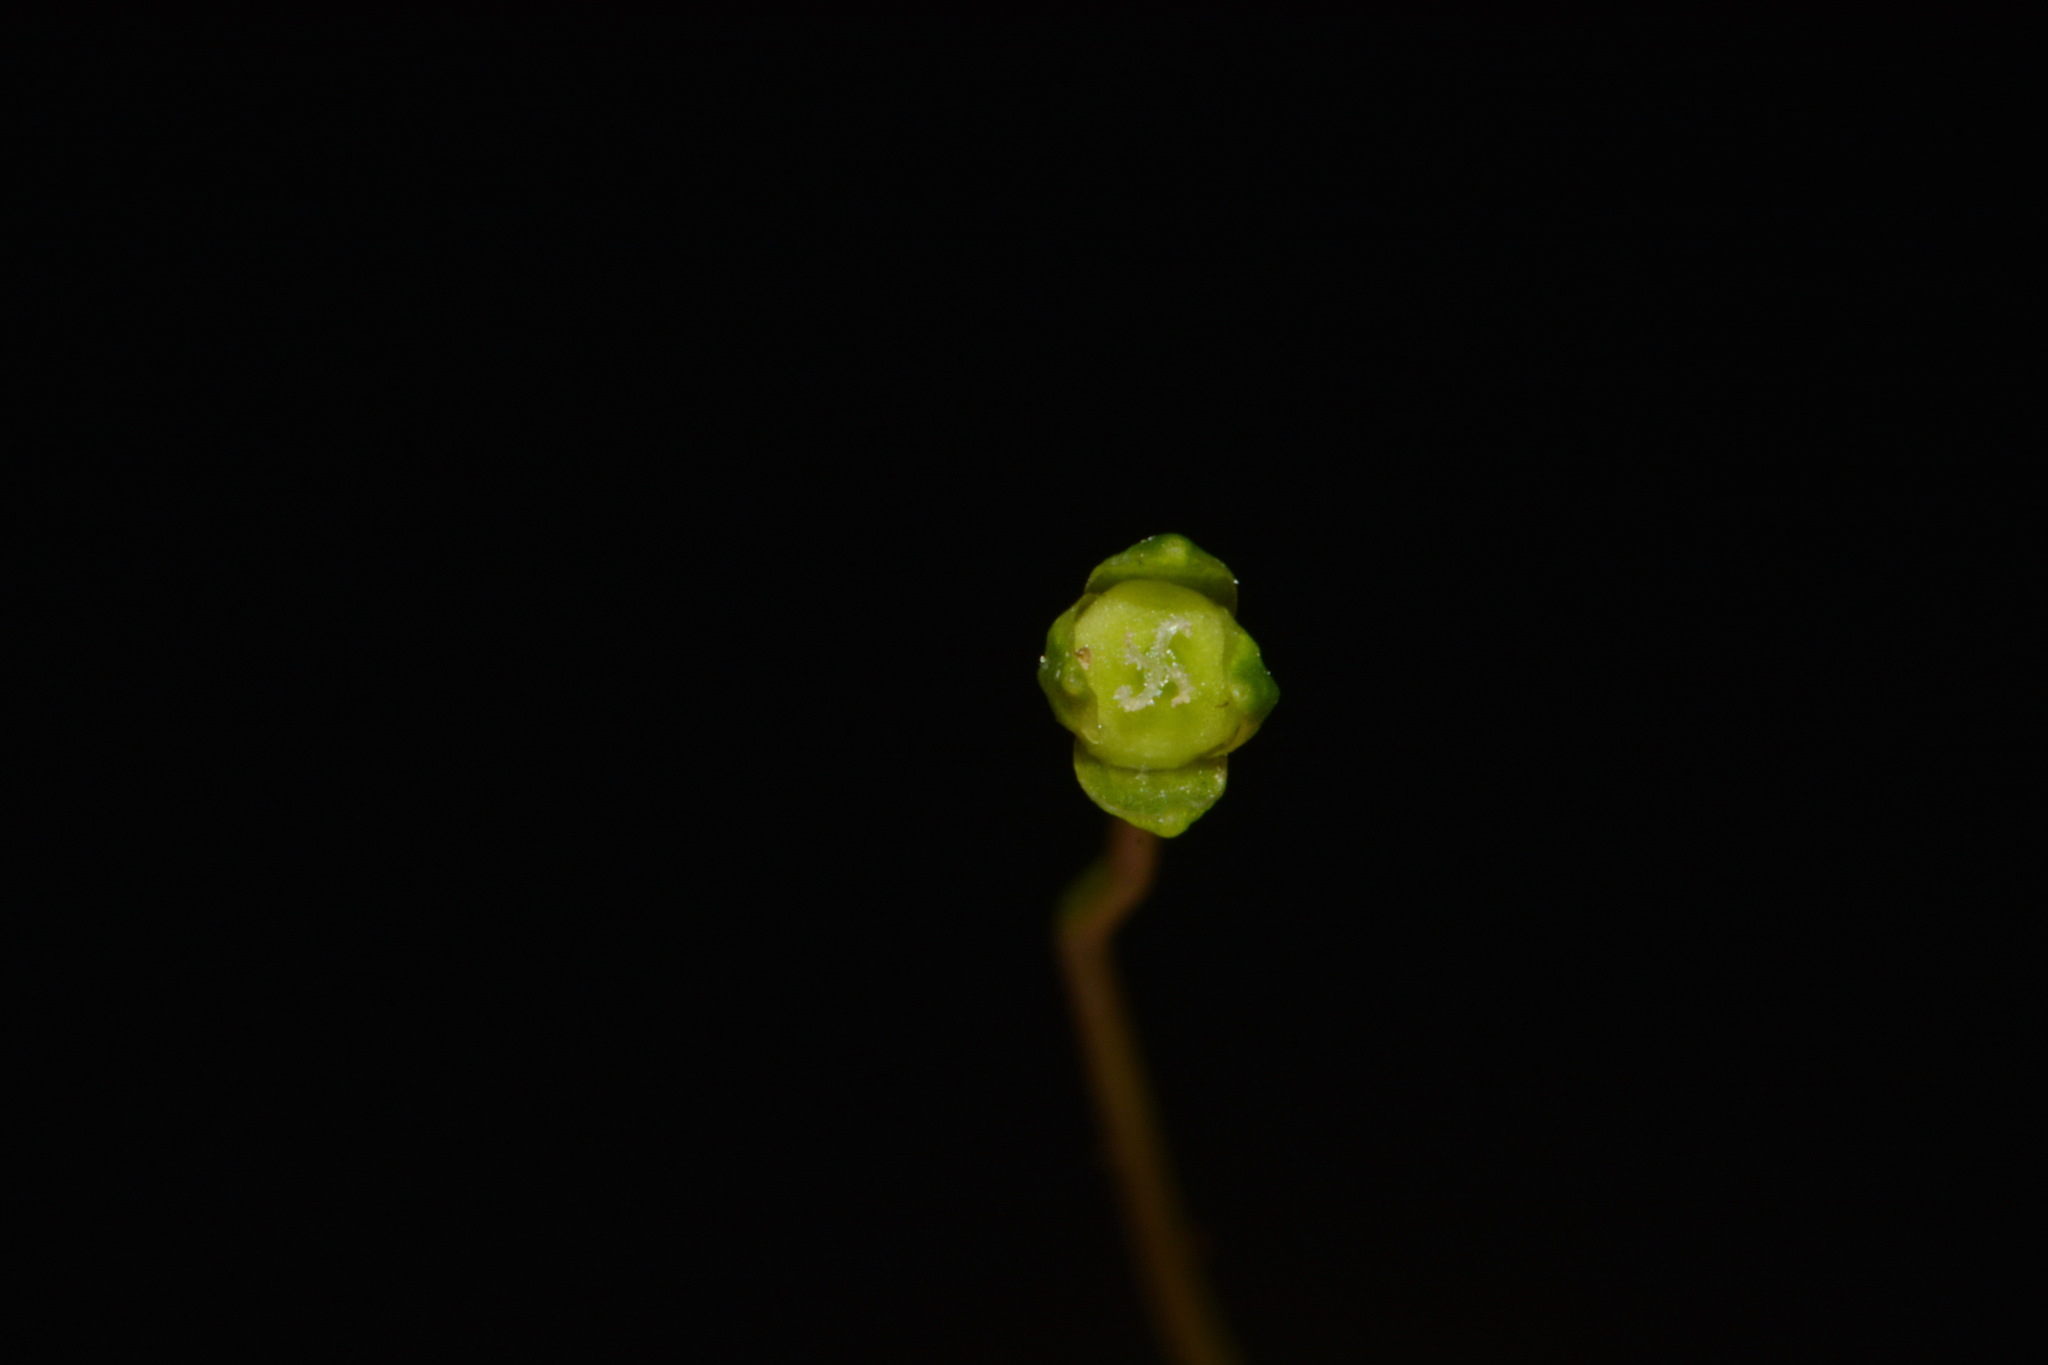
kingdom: Plantae
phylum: Tracheophyta
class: Magnoliopsida
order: Caryophyllales
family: Caryophyllaceae
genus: Sabulina
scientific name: Sabulina fontinalis
